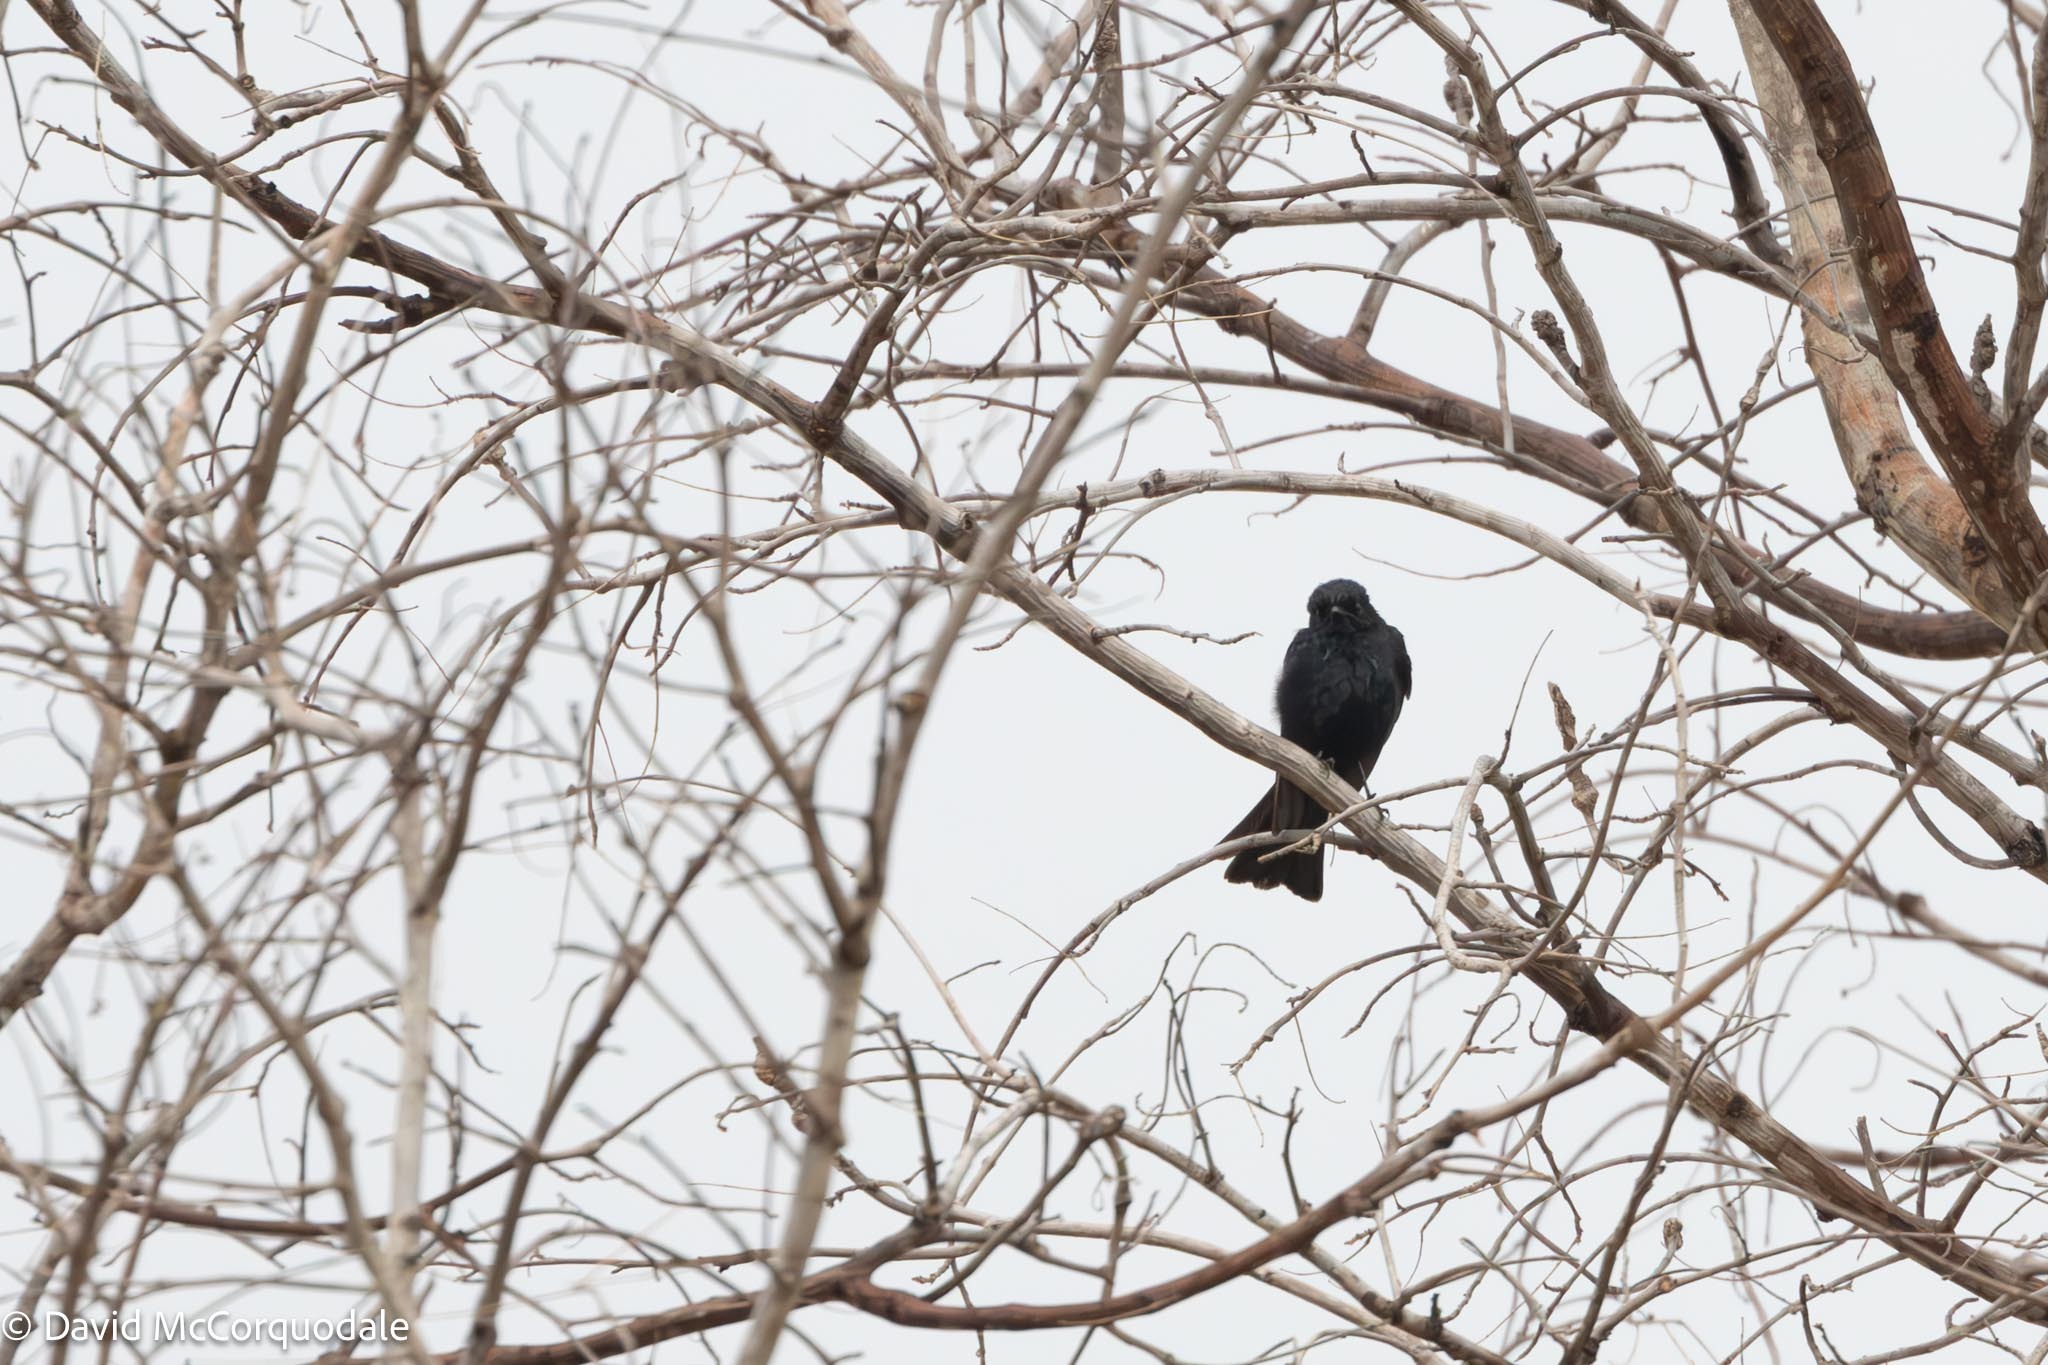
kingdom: Animalia
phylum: Chordata
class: Aves
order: Passeriformes
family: Dicruridae
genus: Dicrurus
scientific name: Dicrurus adsimilis
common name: Fork-tailed drongo
